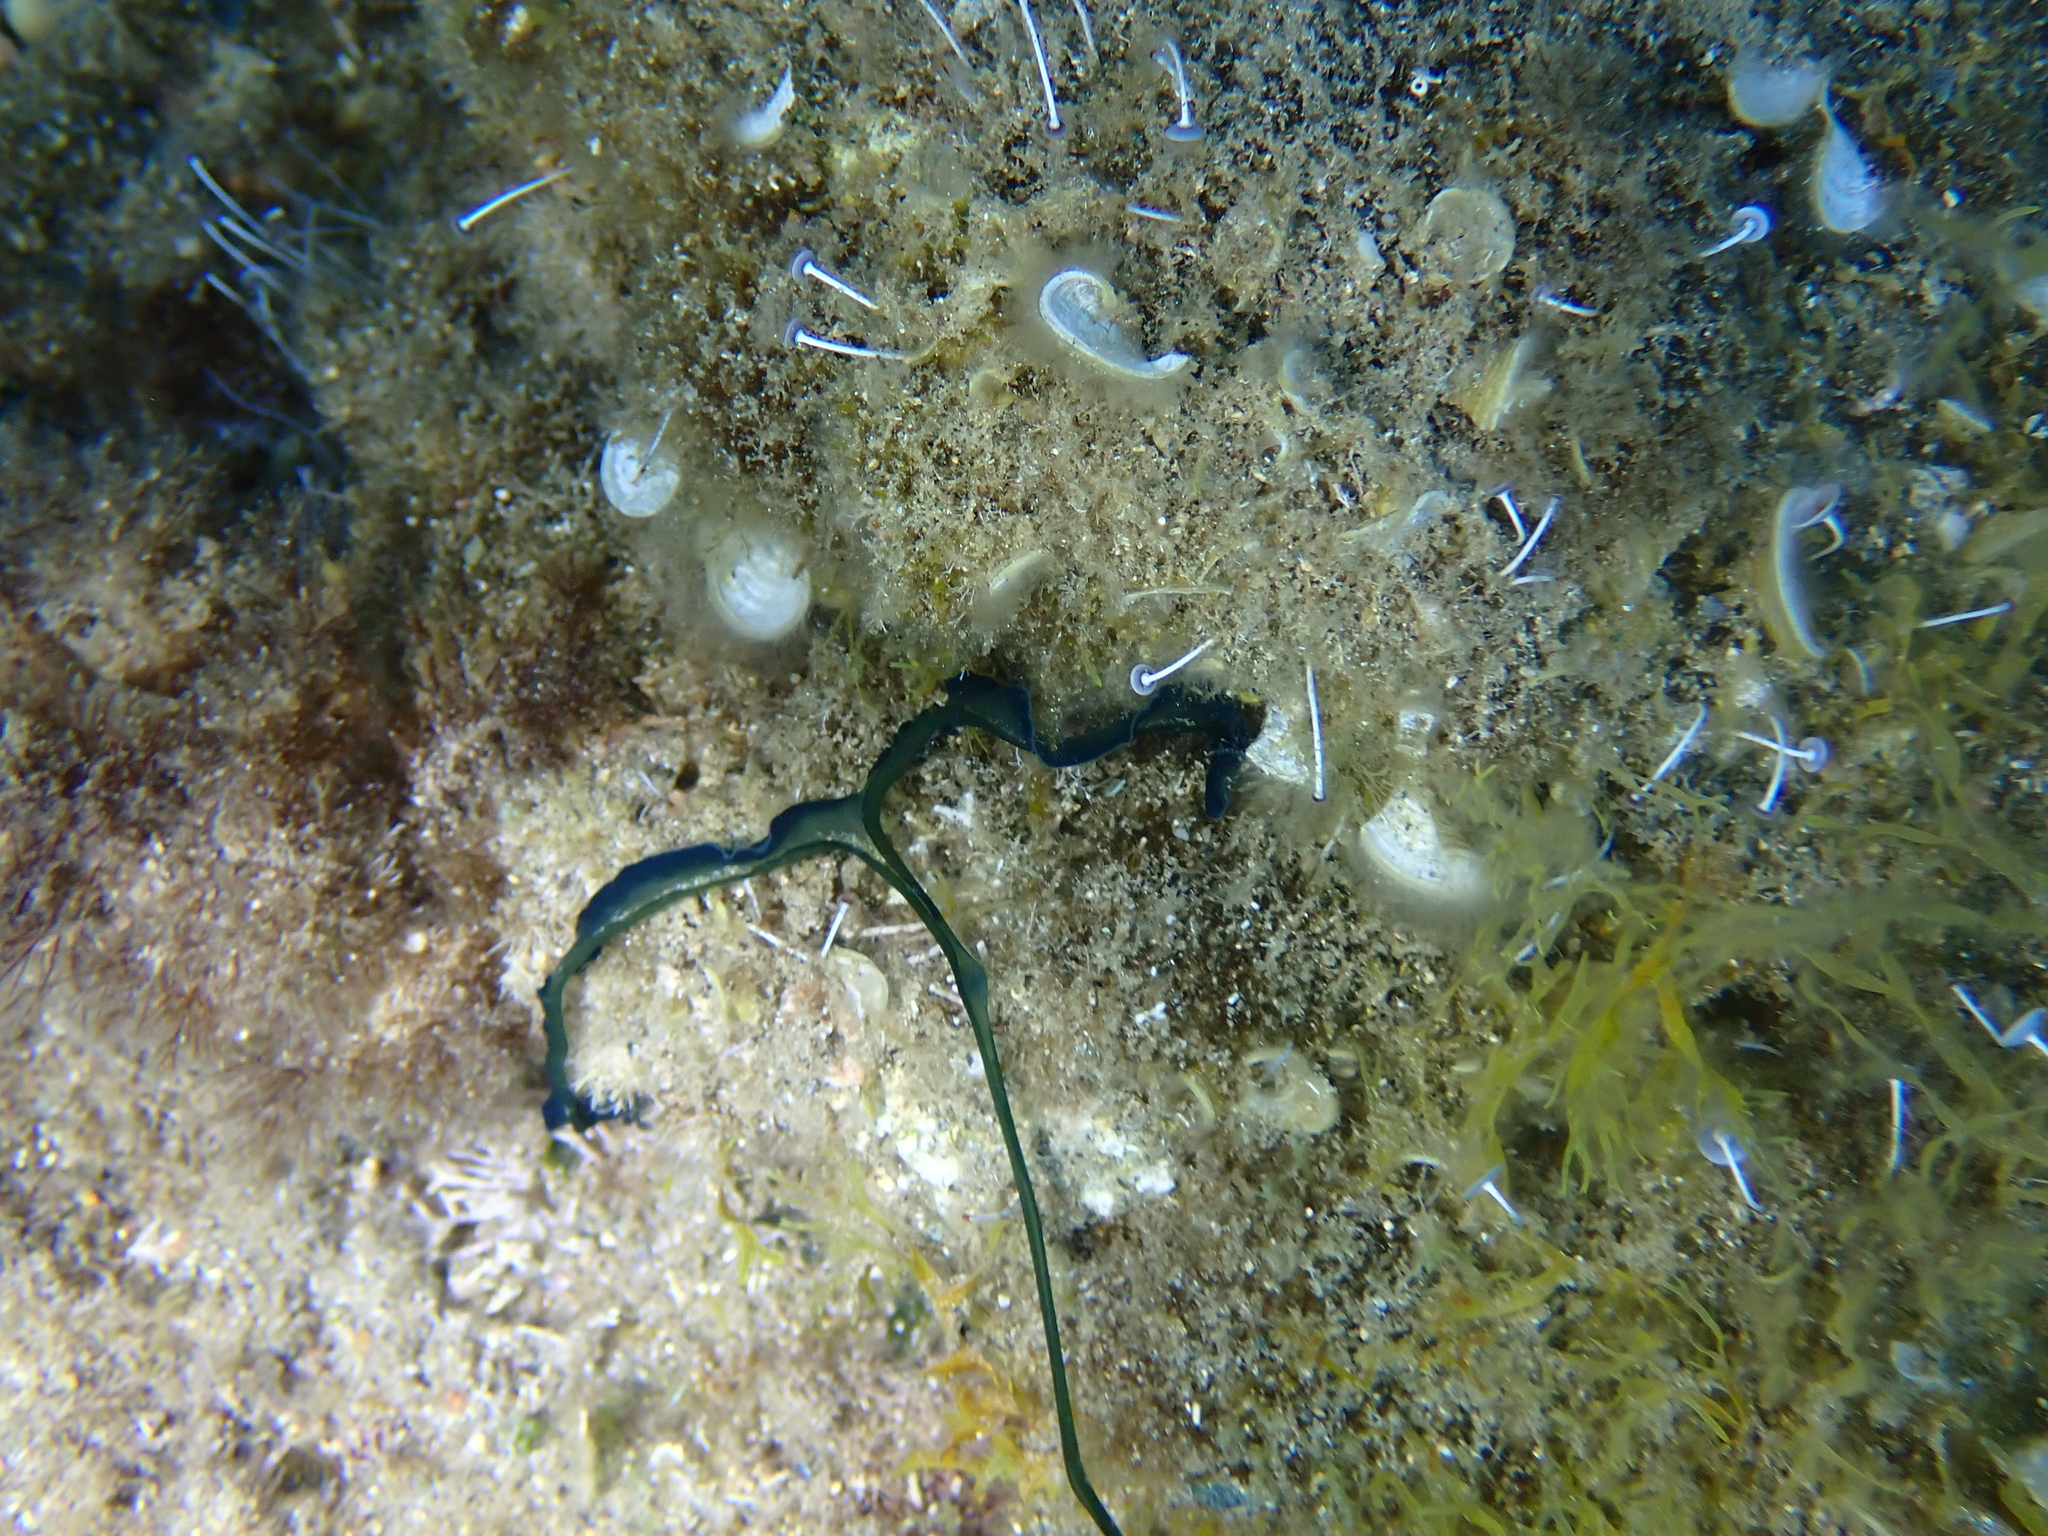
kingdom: Animalia
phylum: Annelida
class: Polychaeta
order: Echiuroidea
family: Bonelliidae
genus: Bonellia
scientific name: Bonellia viridis
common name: Green spoon worm
